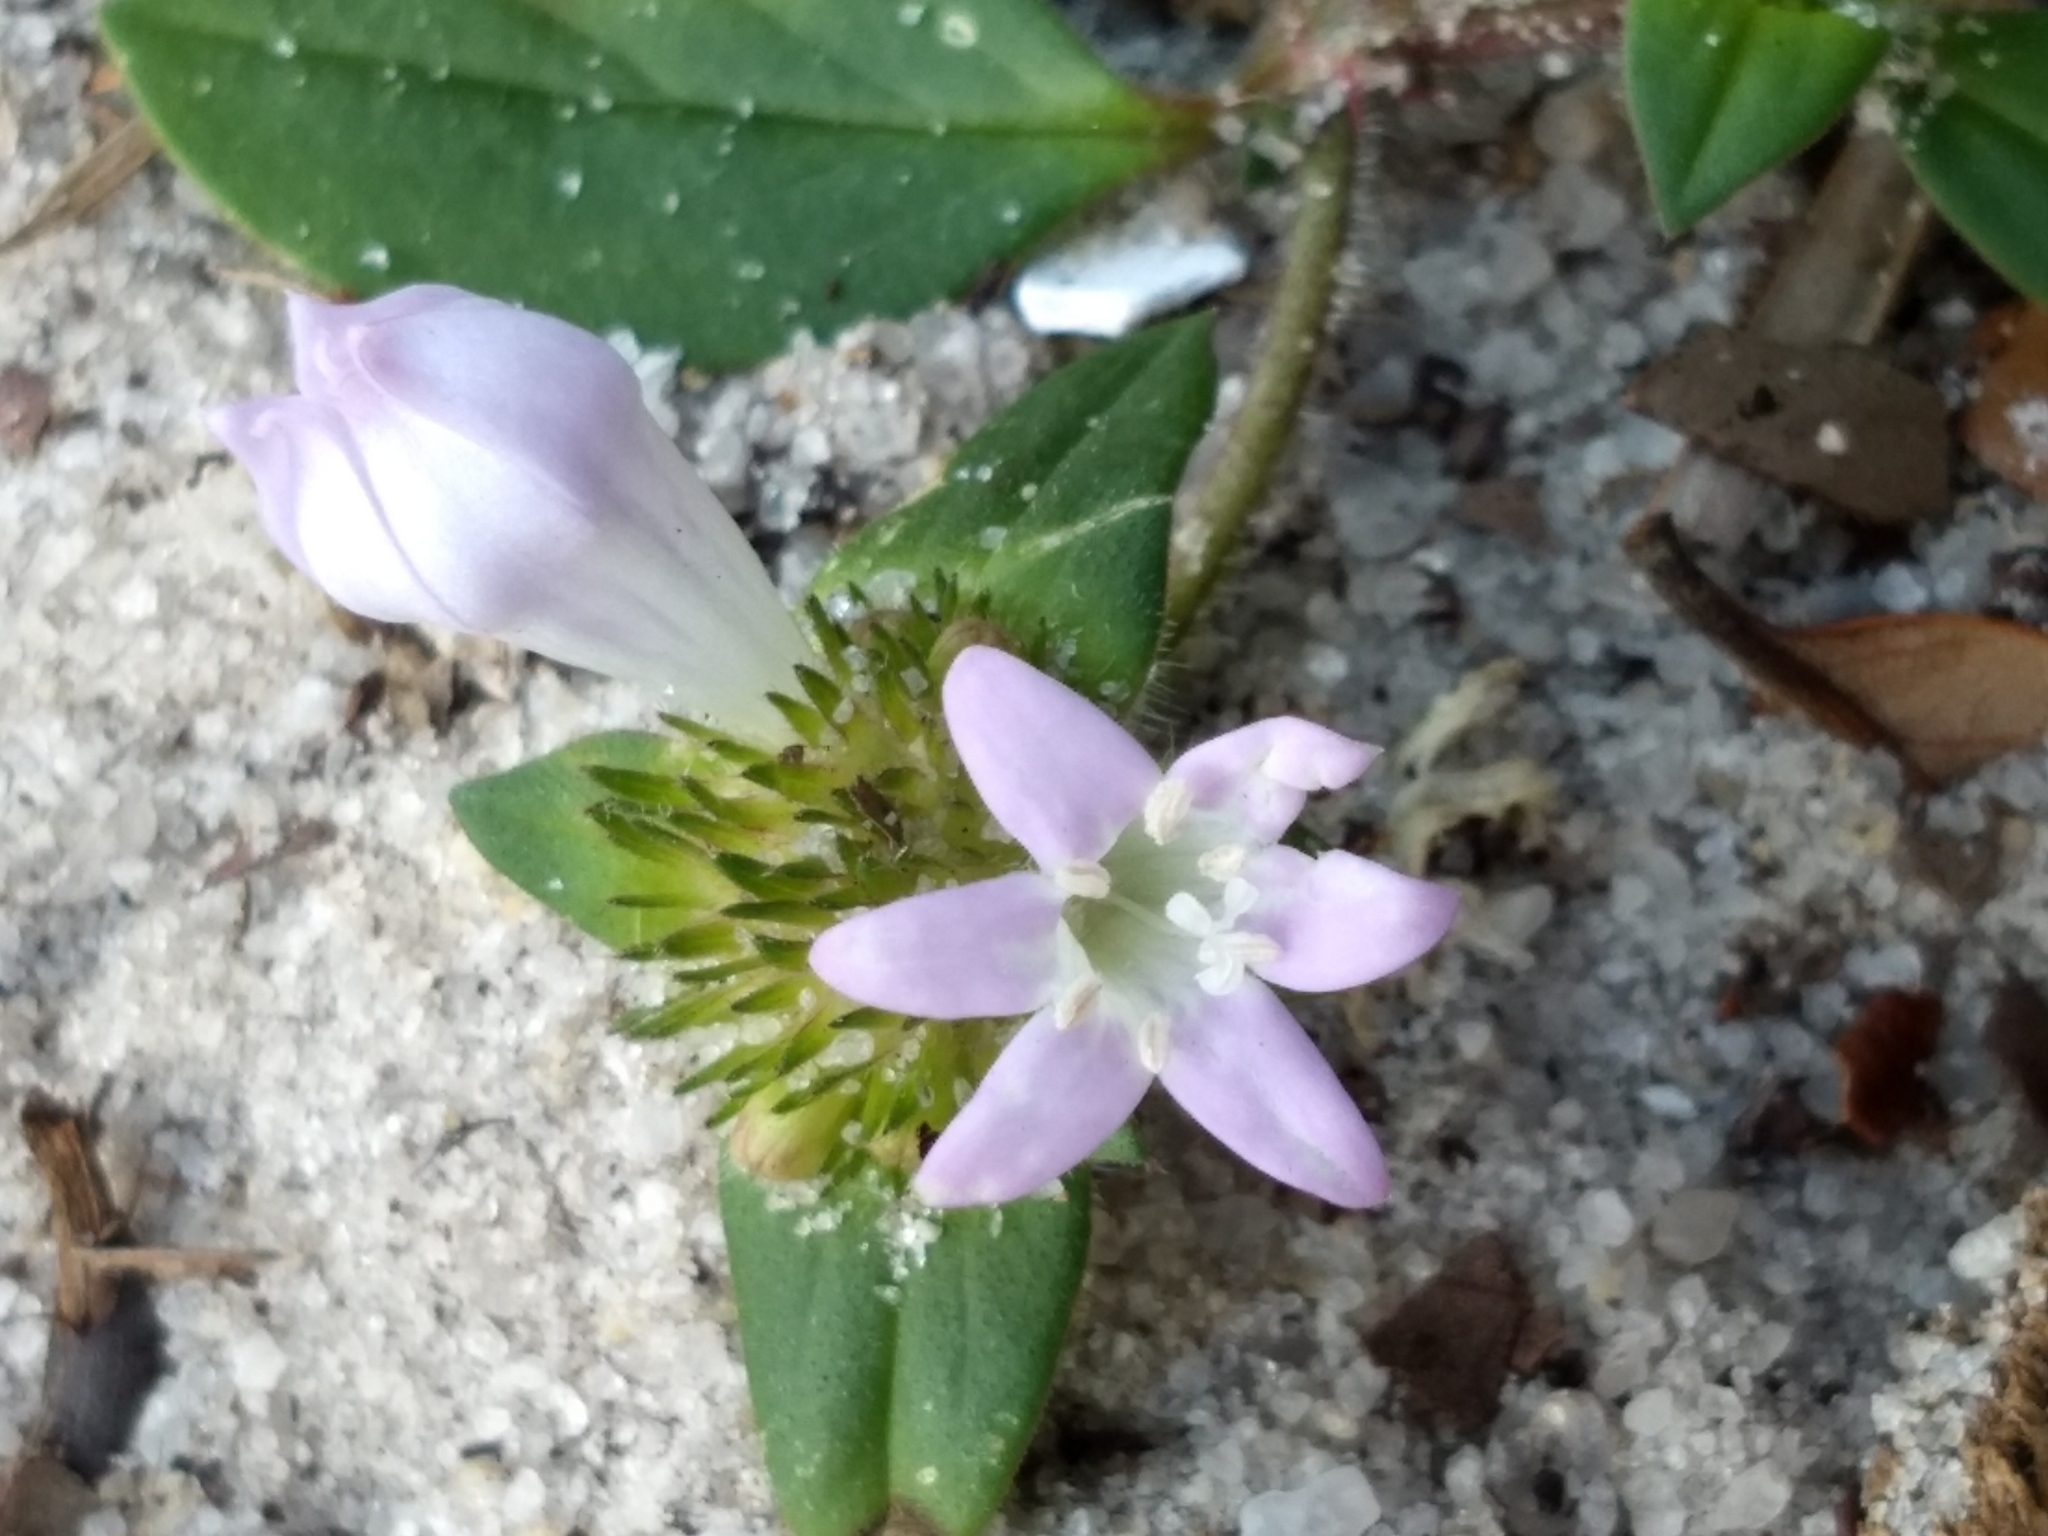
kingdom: Plantae
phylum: Tracheophyta
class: Magnoliopsida
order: Gentianales
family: Rubiaceae
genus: Richardia
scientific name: Richardia grandiflora
